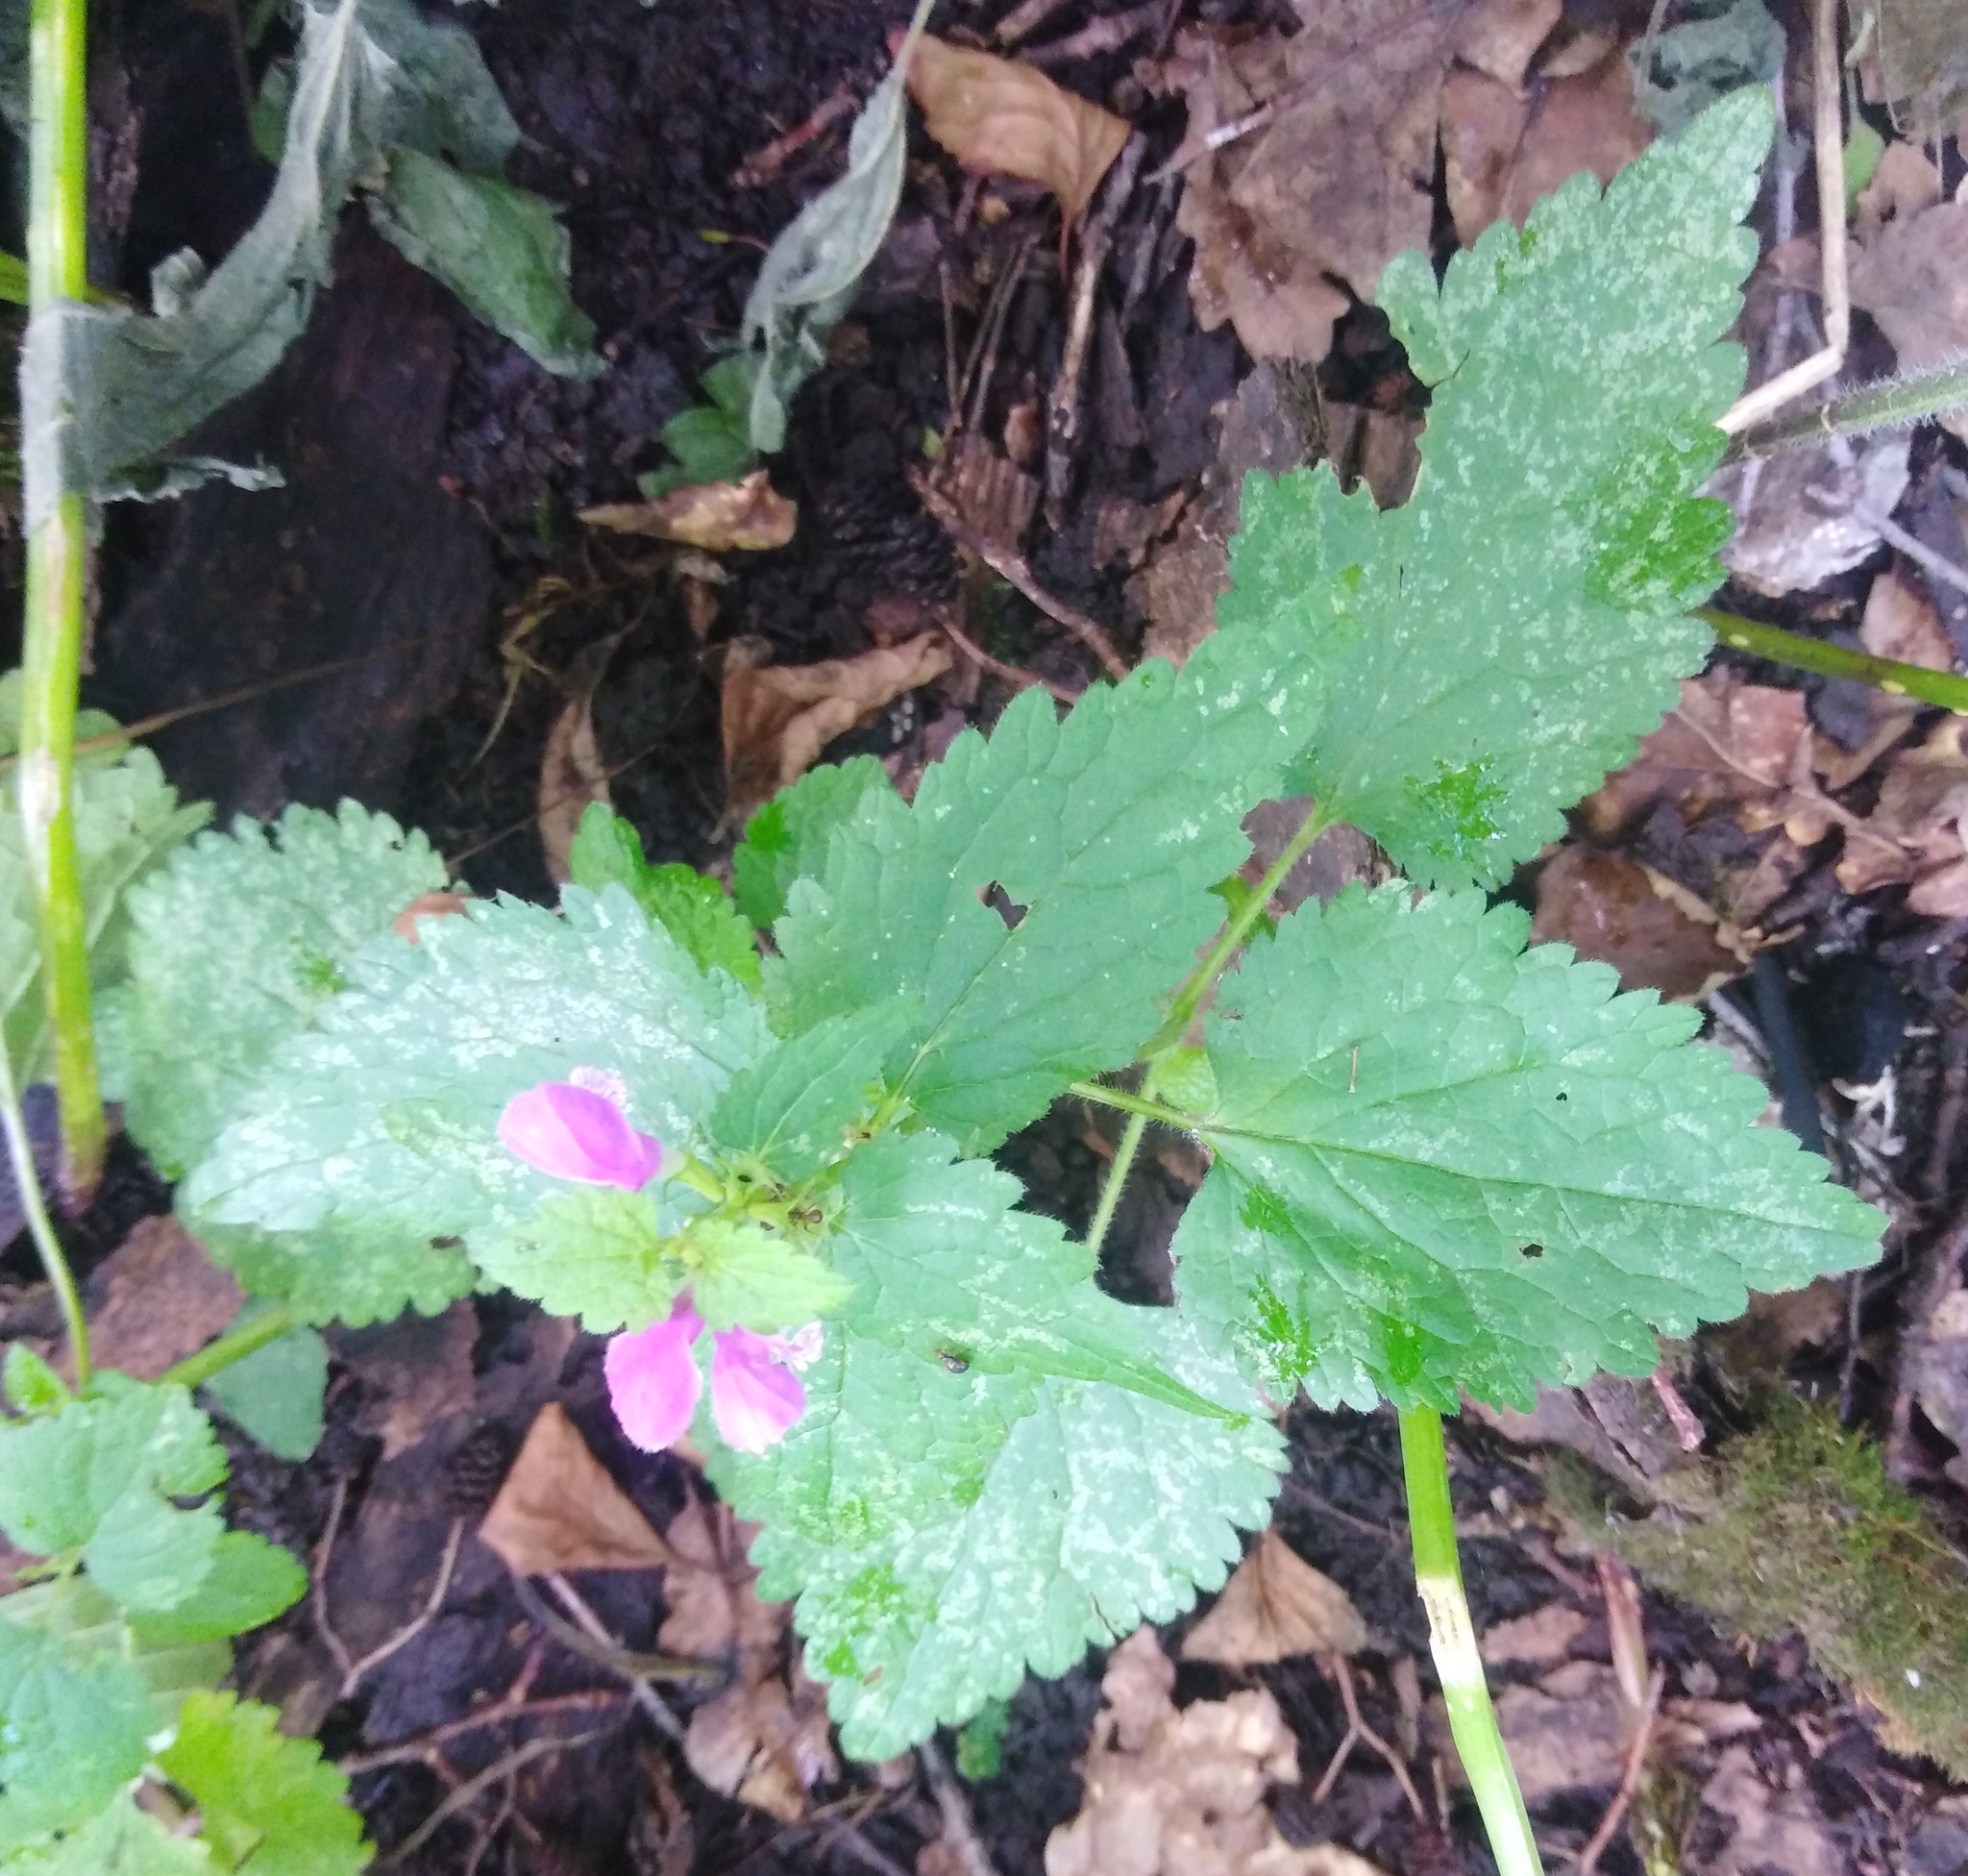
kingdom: Plantae
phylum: Tracheophyta
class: Magnoliopsida
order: Lamiales
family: Lamiaceae
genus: Lamium
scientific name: Lamium maculatum
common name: Spotted dead-nettle
